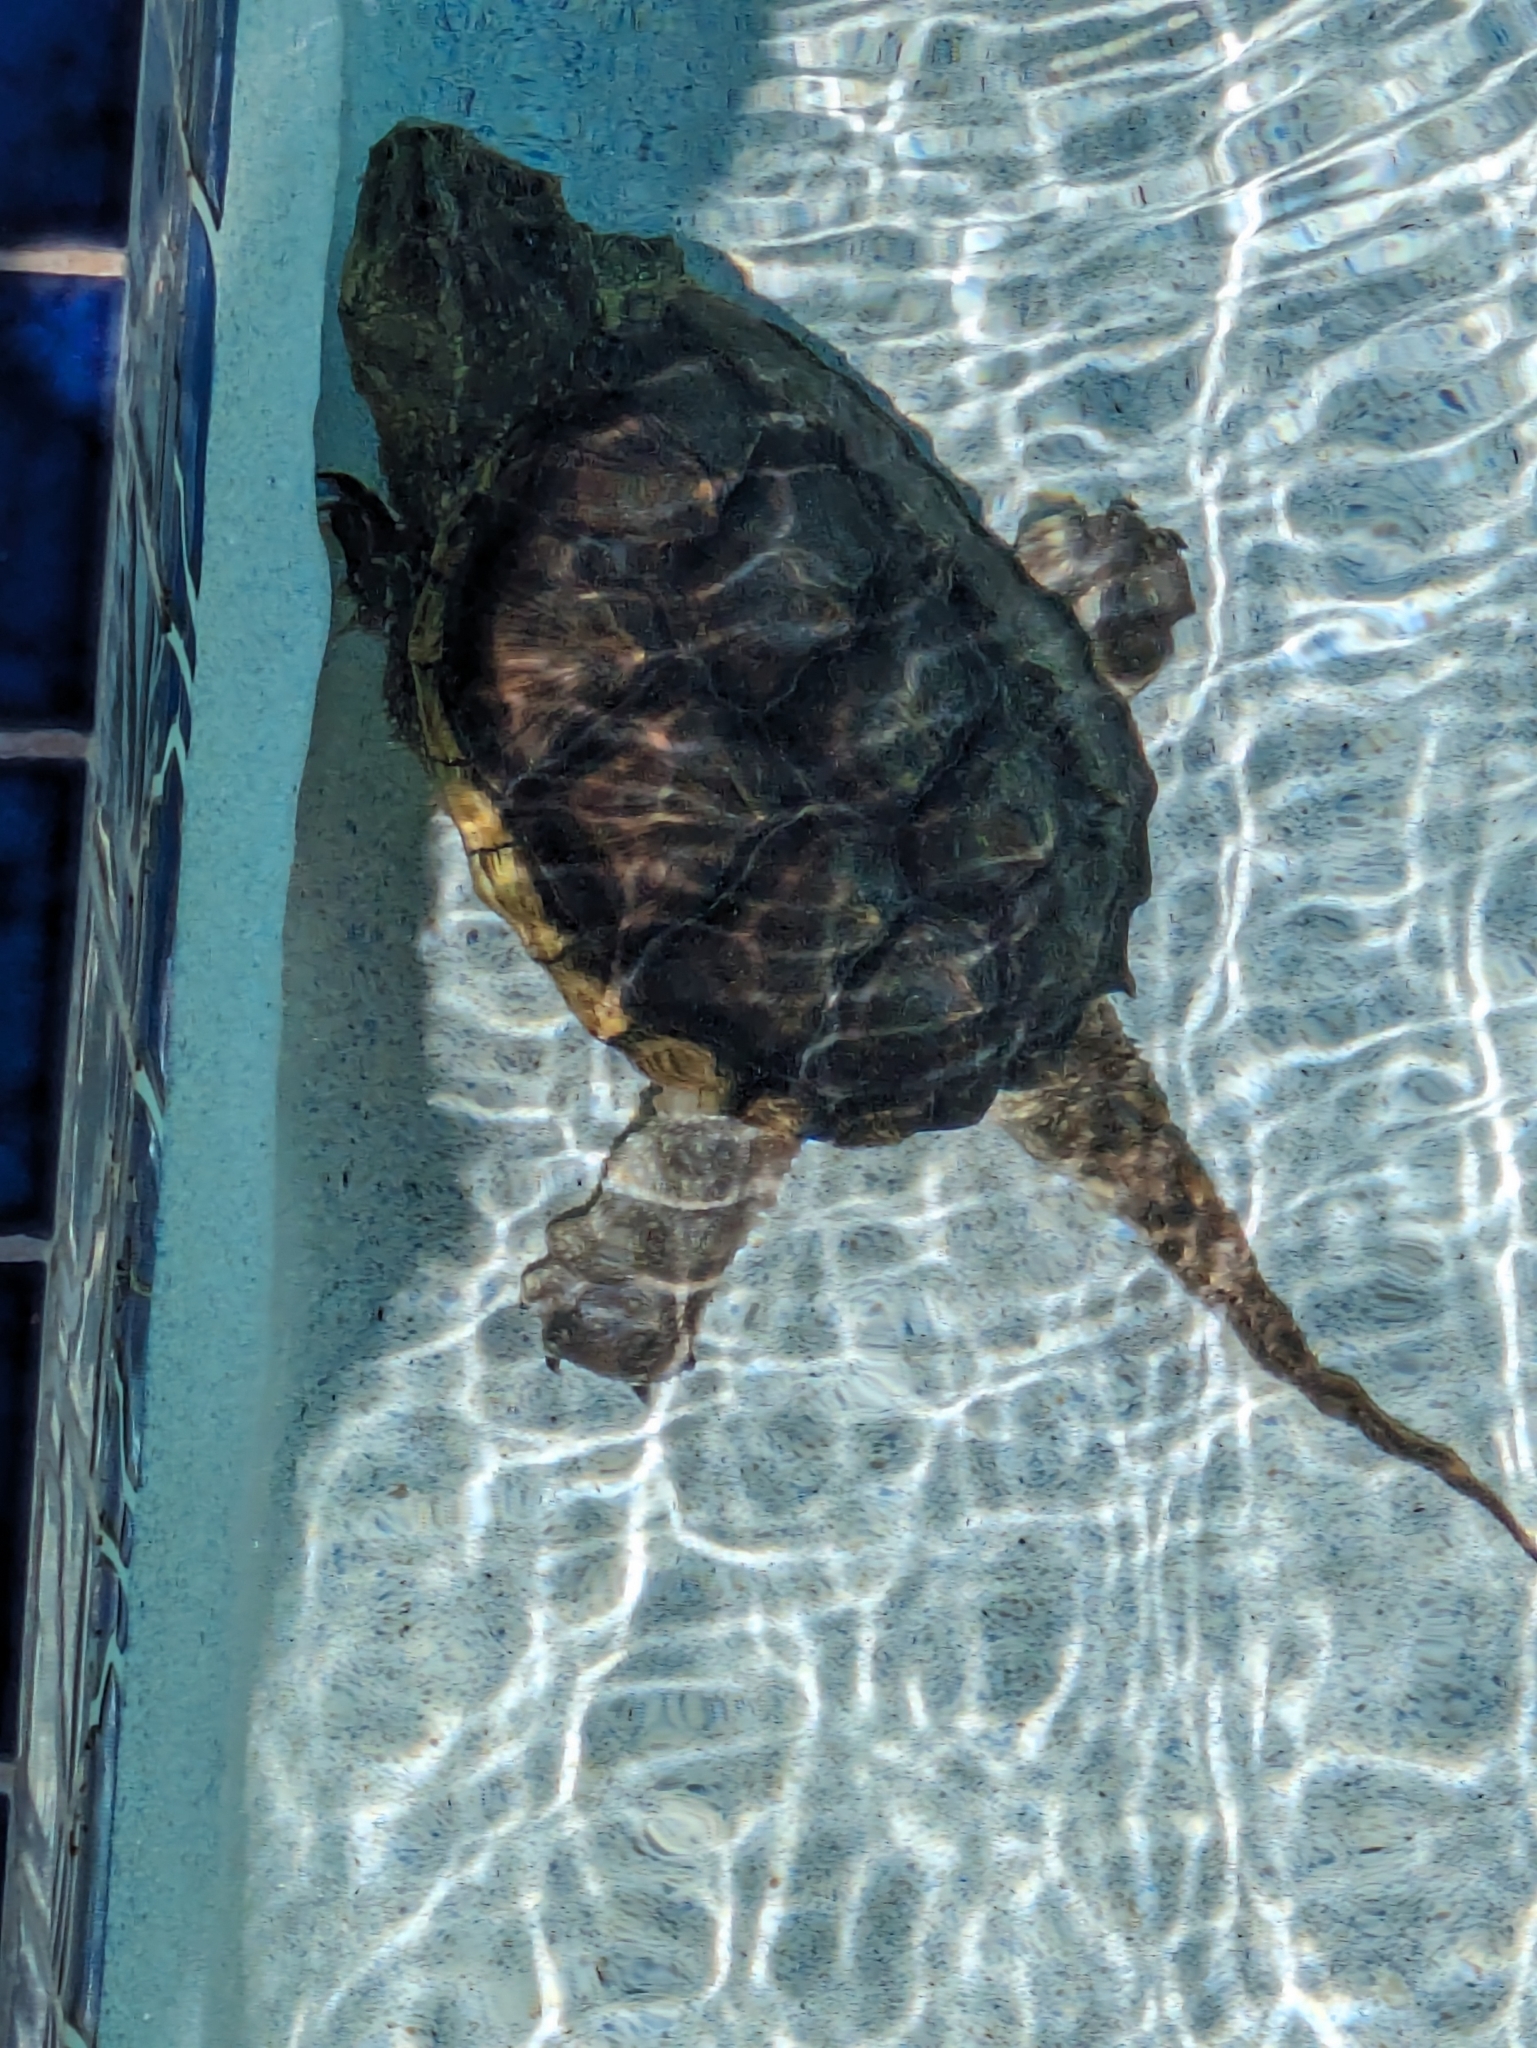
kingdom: Animalia
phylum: Chordata
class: Testudines
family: Chelydridae
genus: Chelydra
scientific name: Chelydra serpentina
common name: Common snapping turtle
